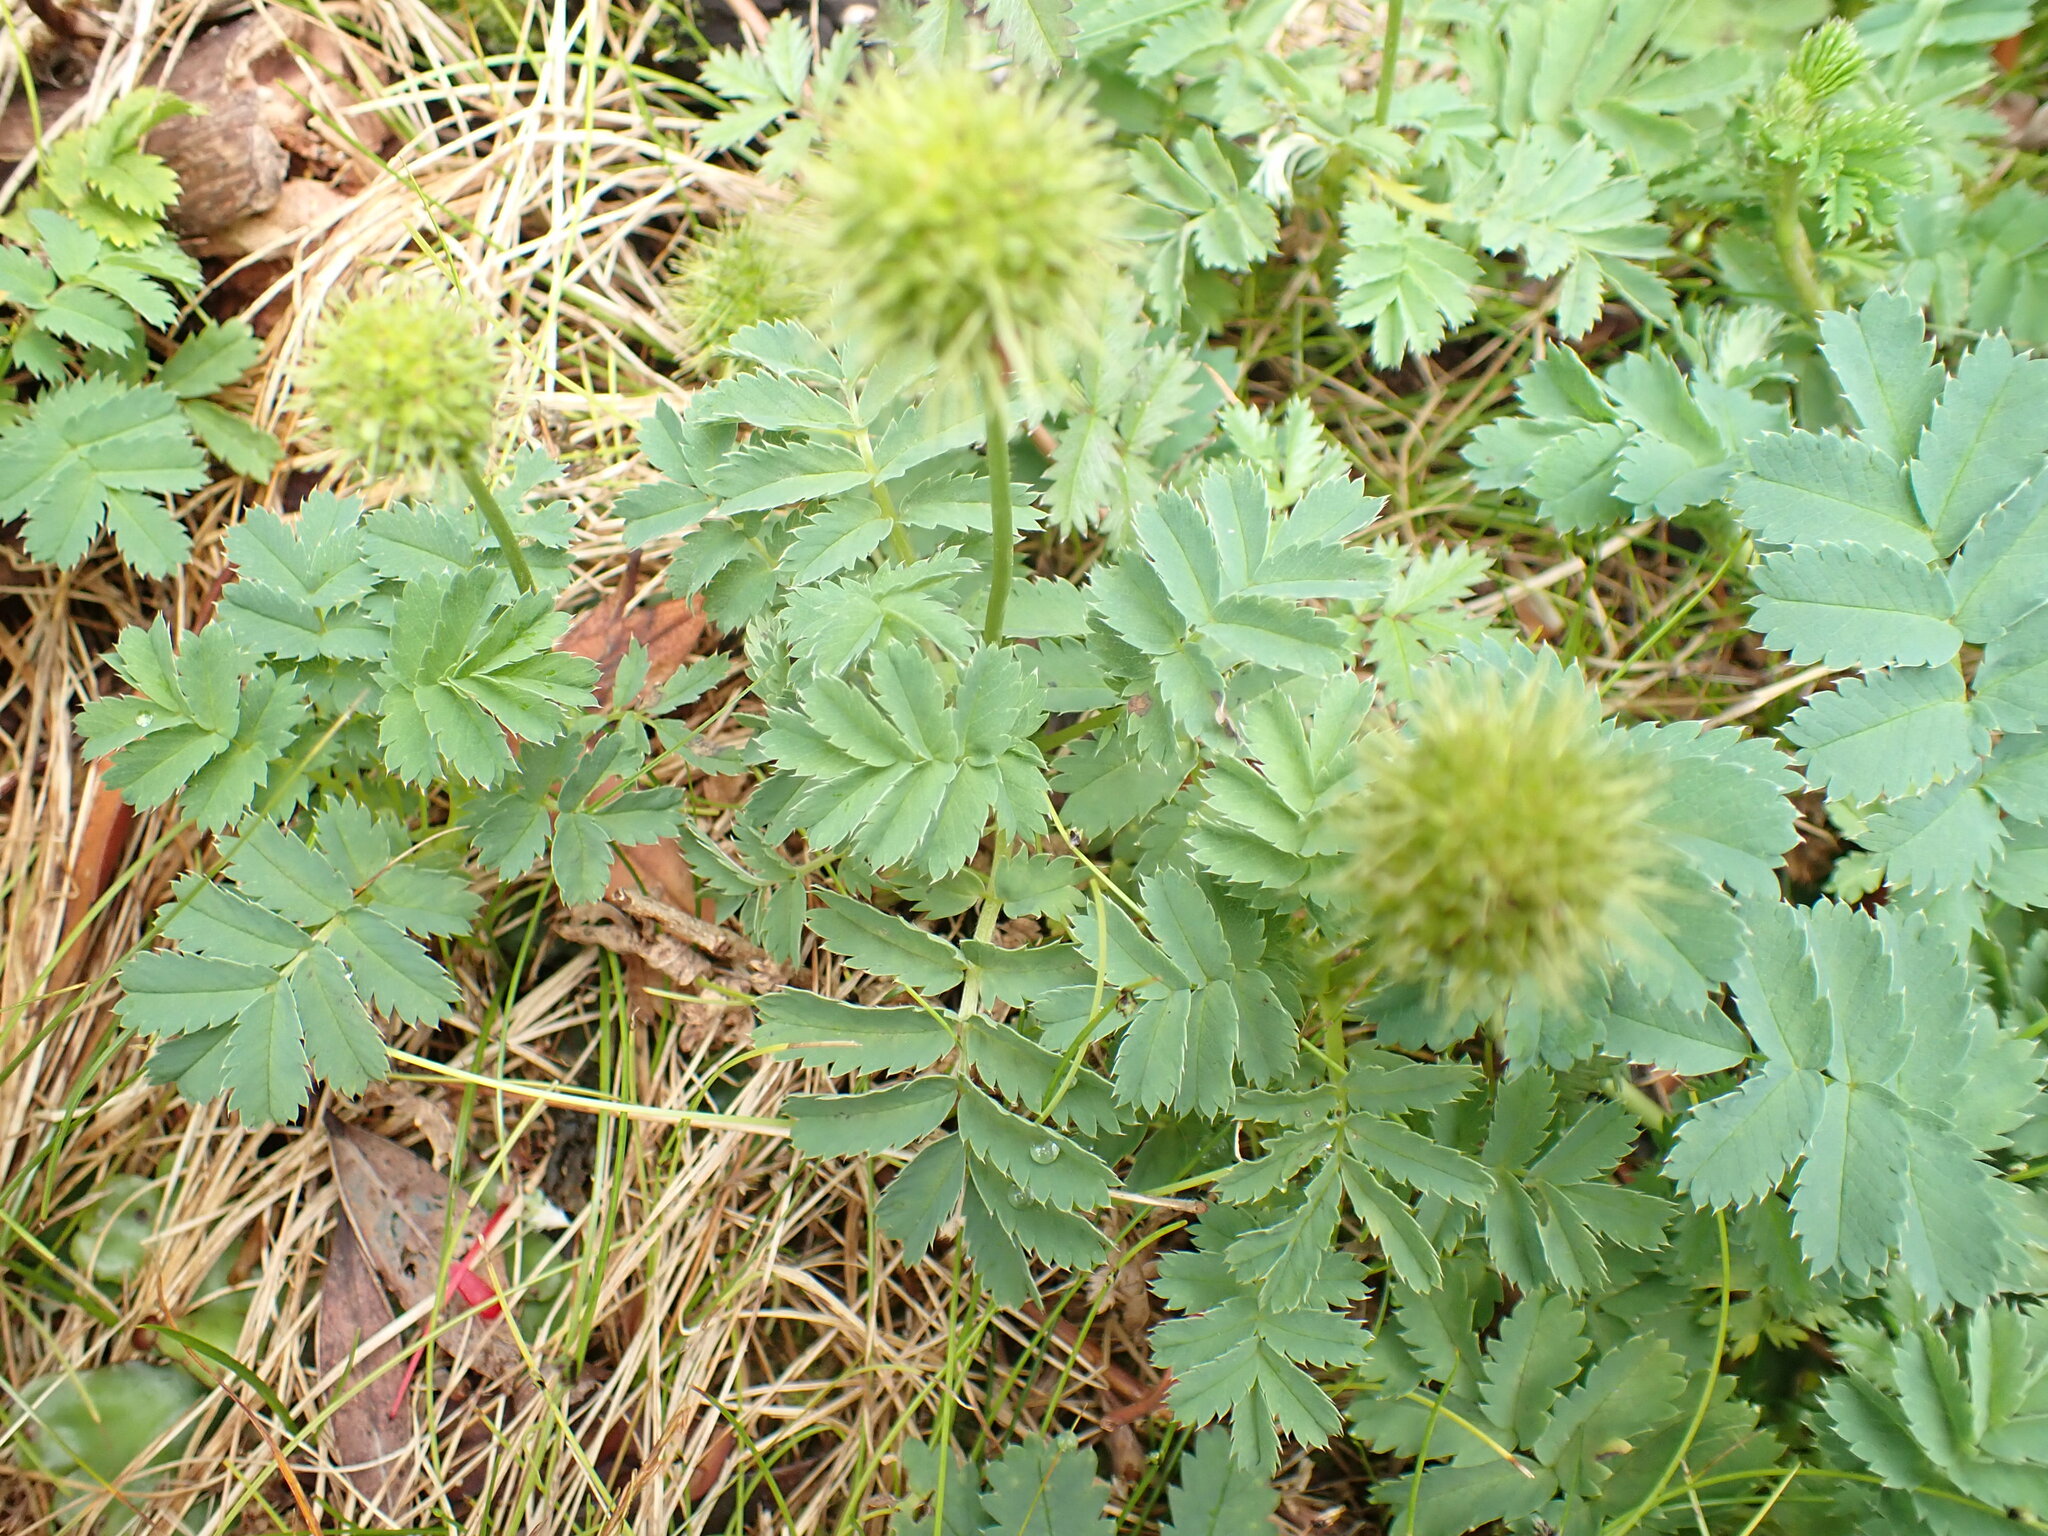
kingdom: Plantae
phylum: Tracheophyta
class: Magnoliopsida
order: Rosales
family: Rosaceae
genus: Acaena
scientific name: Acaena minor
